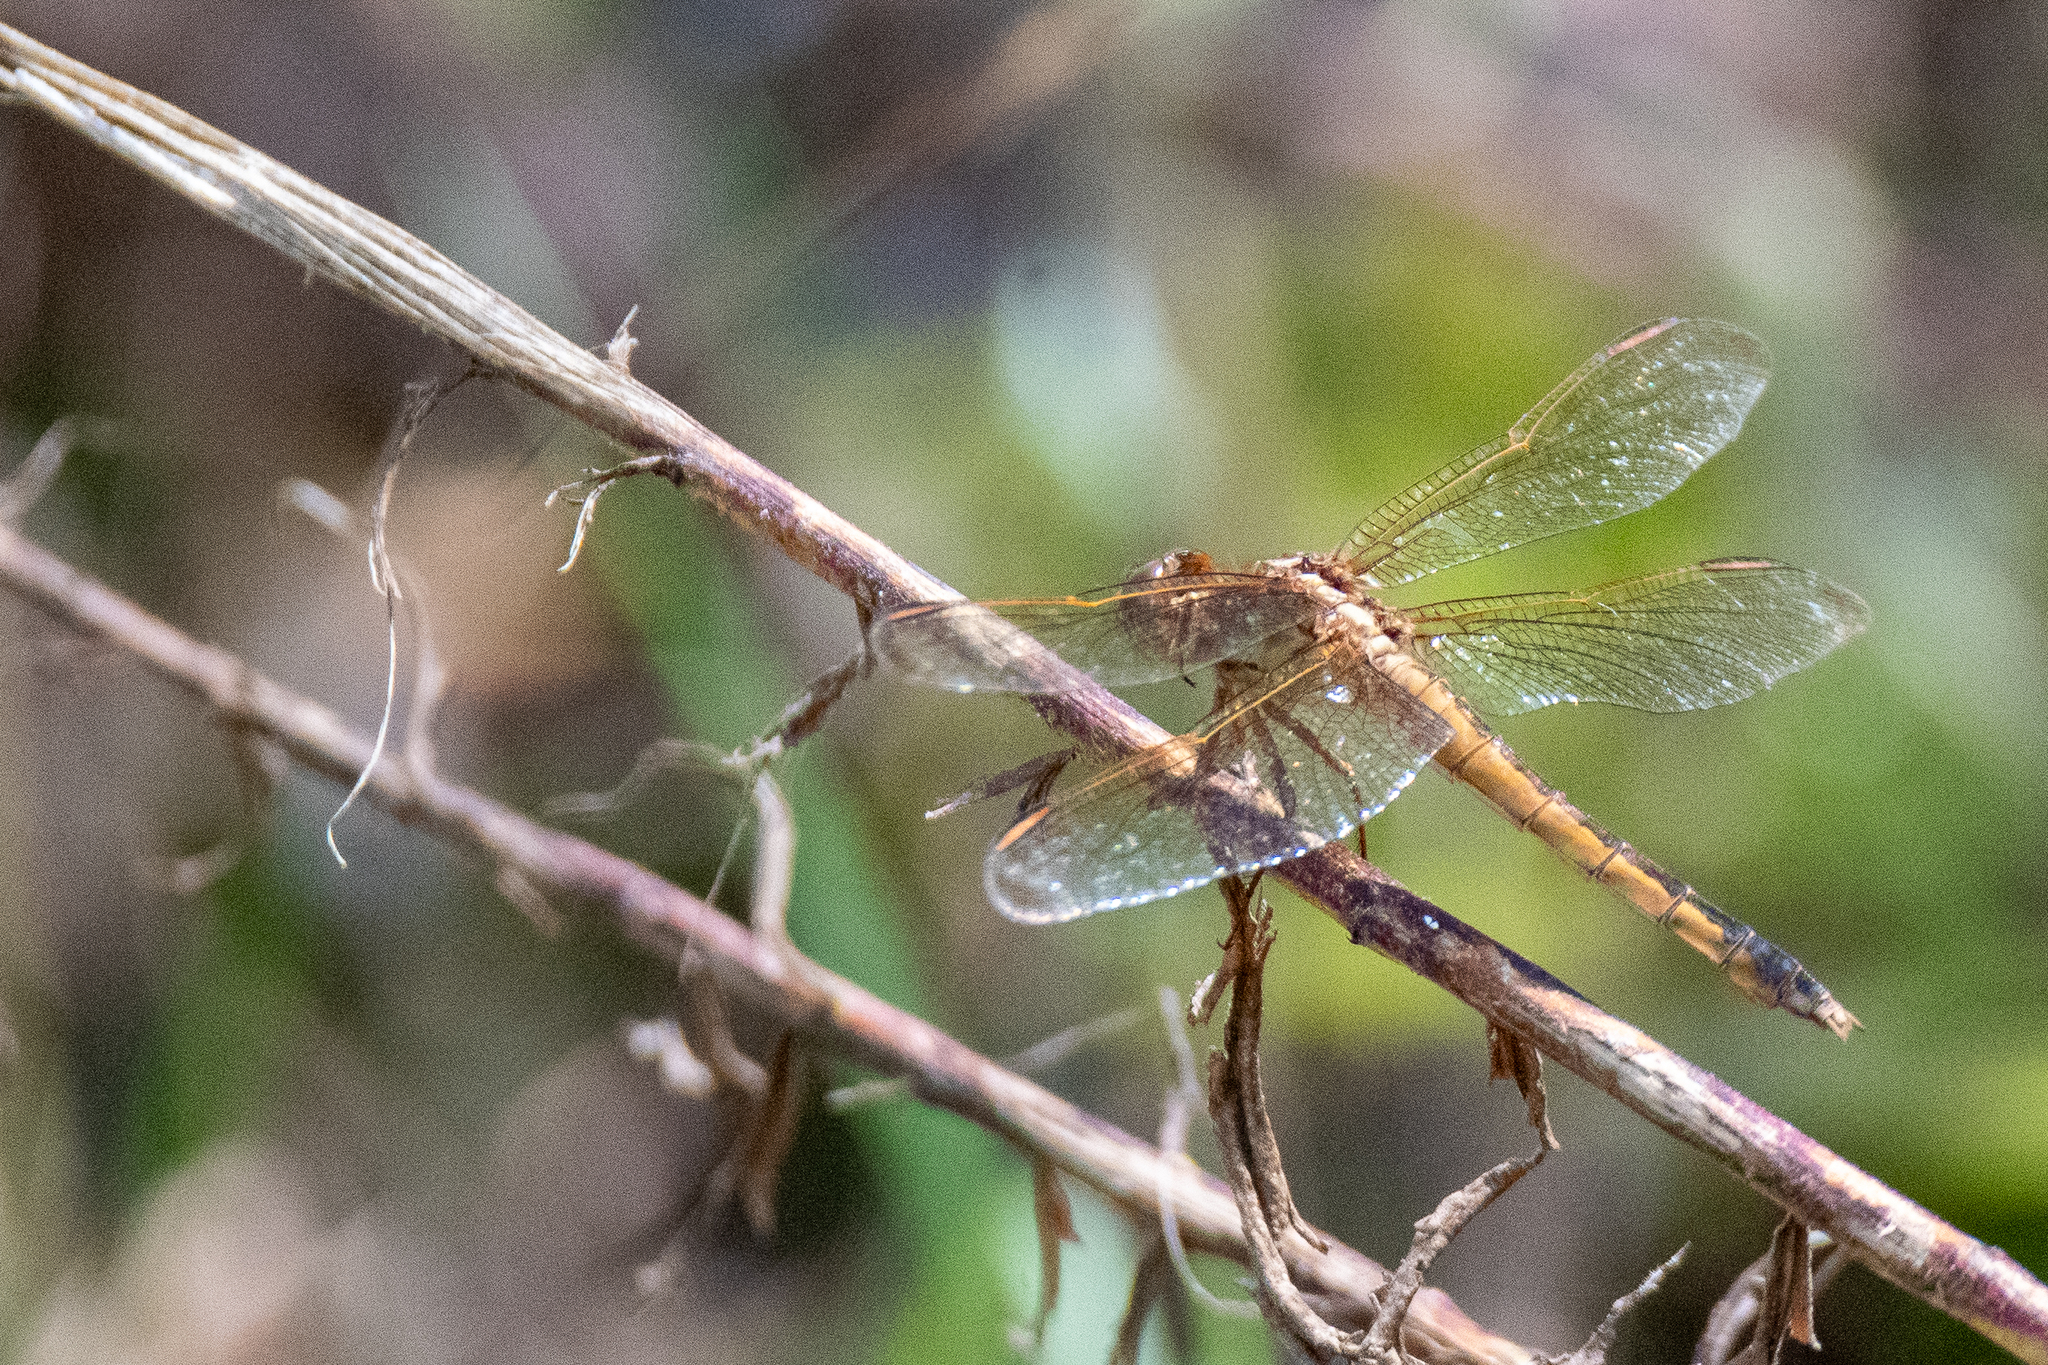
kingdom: Animalia
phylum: Arthropoda
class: Insecta
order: Odonata
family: Libellulidae
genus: Libellula
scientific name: Libellula needhami
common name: Needham's skimmer
